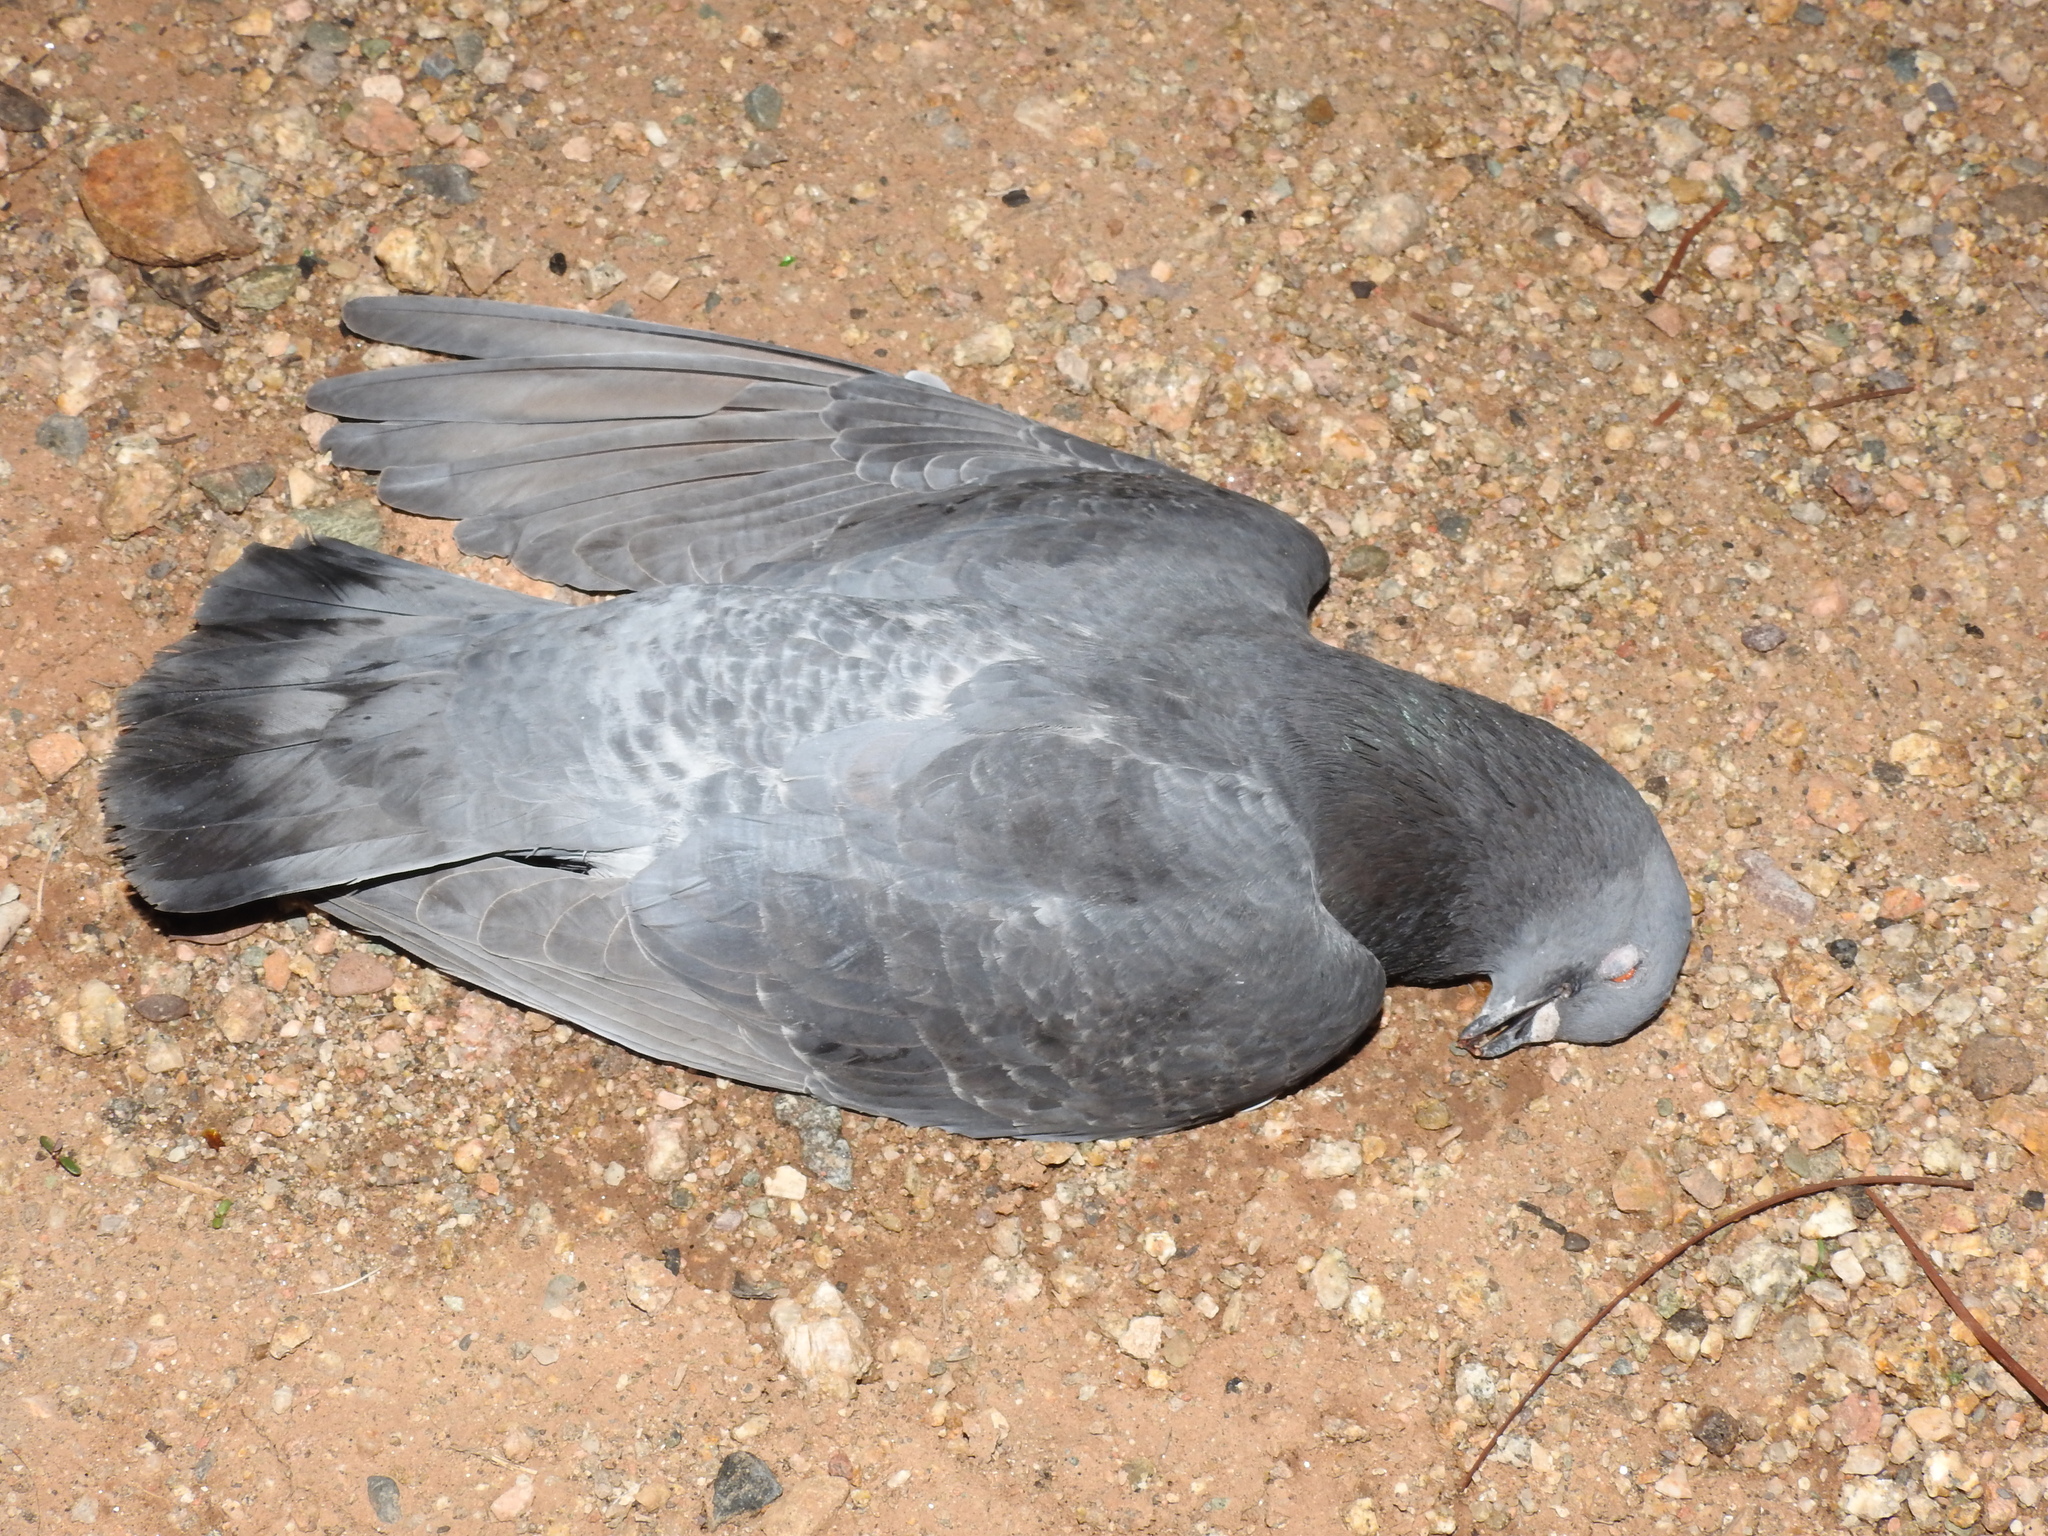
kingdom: Animalia
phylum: Chordata
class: Aves
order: Columbiformes
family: Columbidae
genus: Columba
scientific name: Columba livia
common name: Rock pigeon
